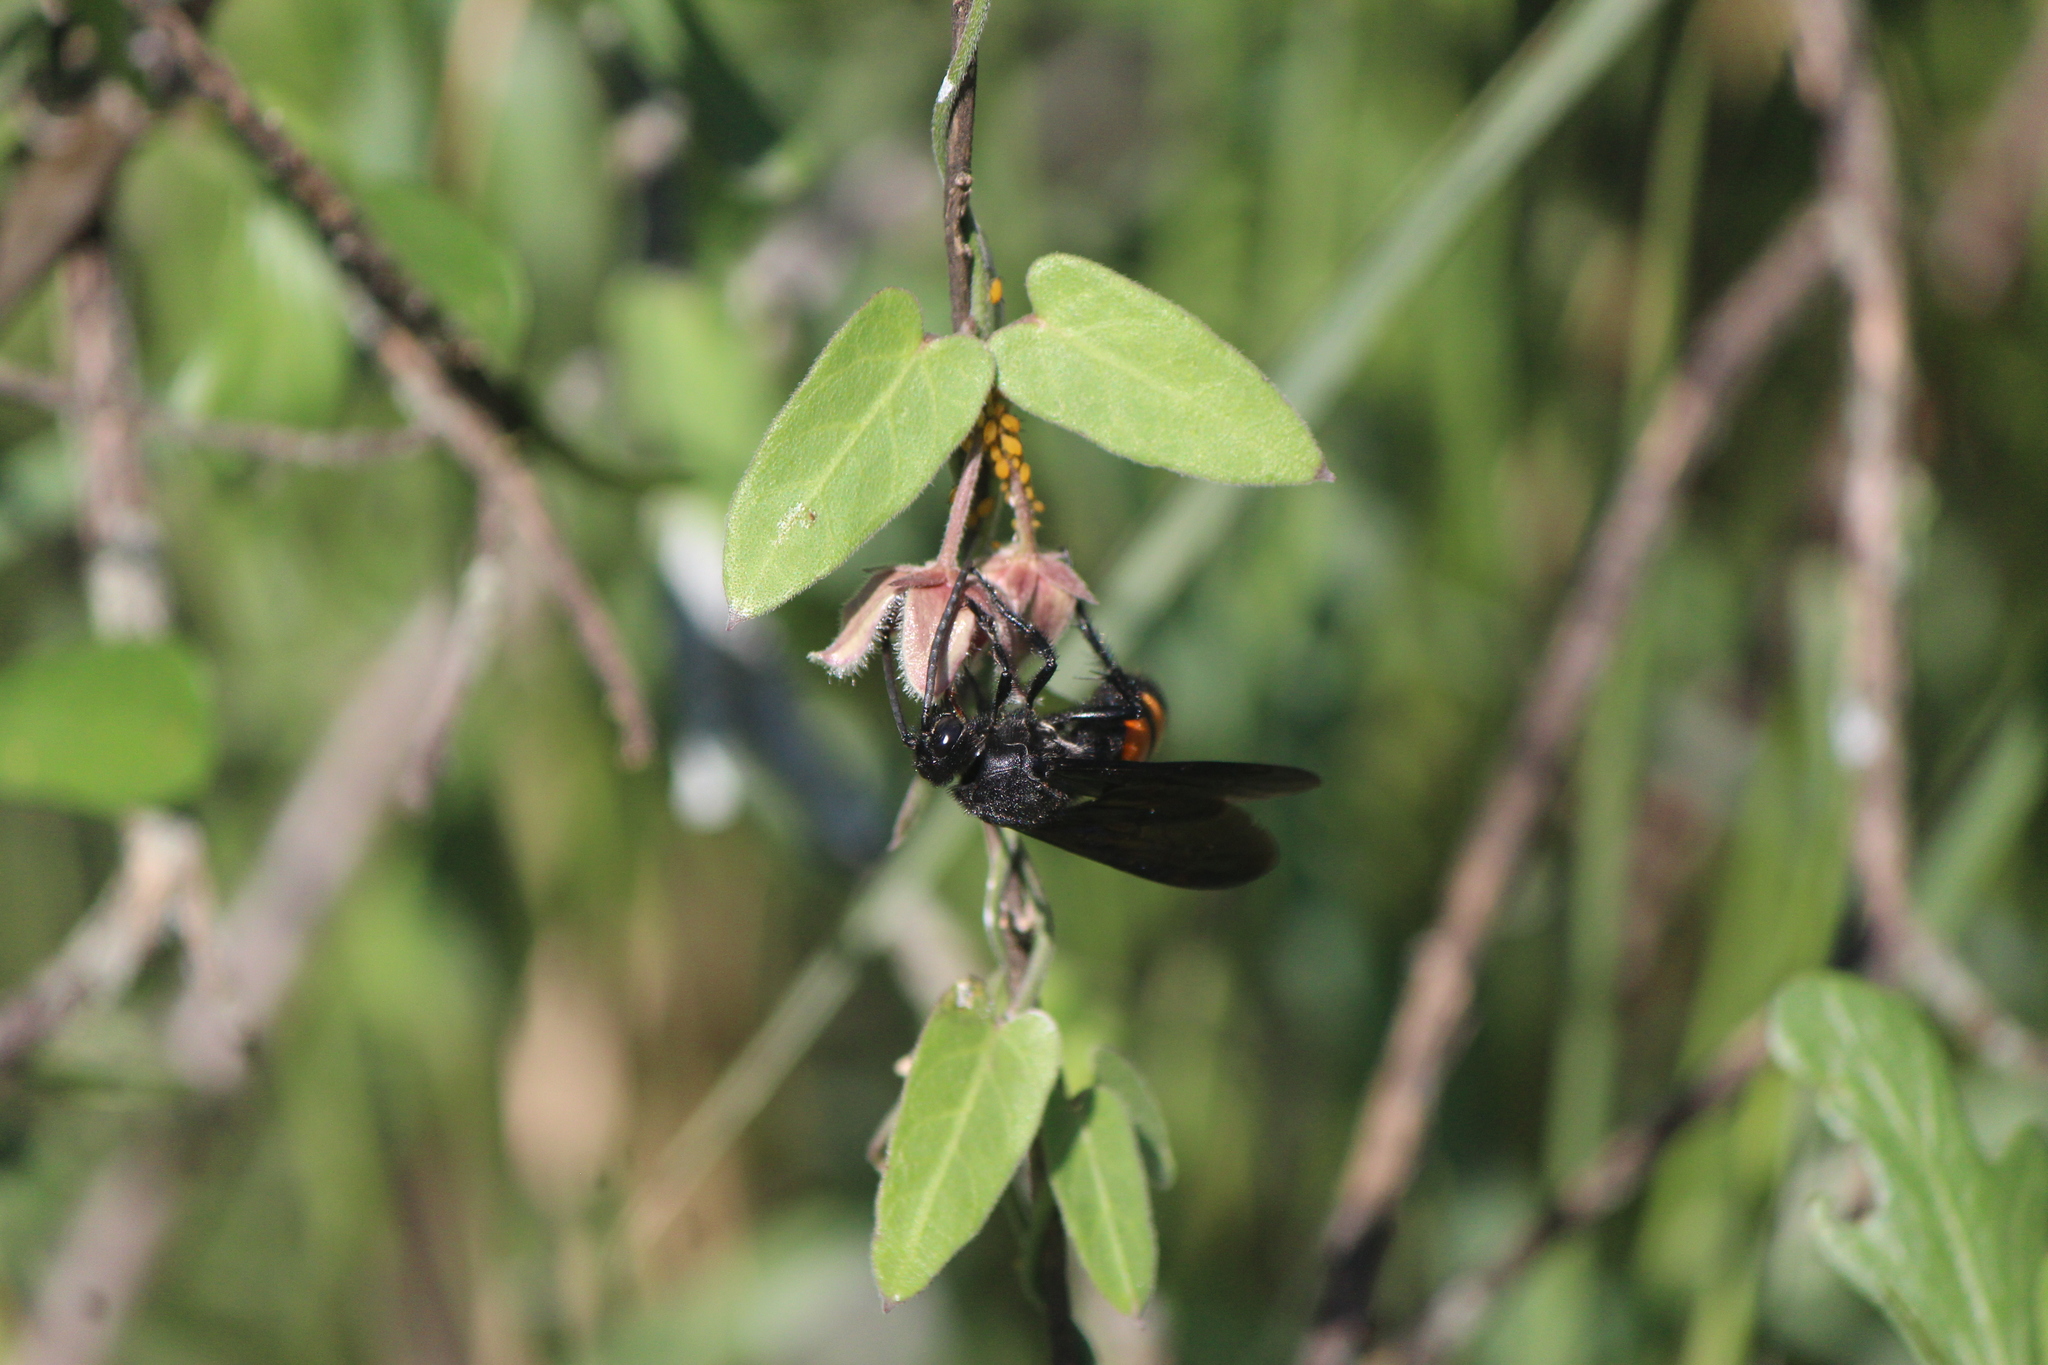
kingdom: Animalia
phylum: Arthropoda
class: Insecta
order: Hymenoptera
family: Scoliidae
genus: Pygodasis
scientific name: Pygodasis ephippium
